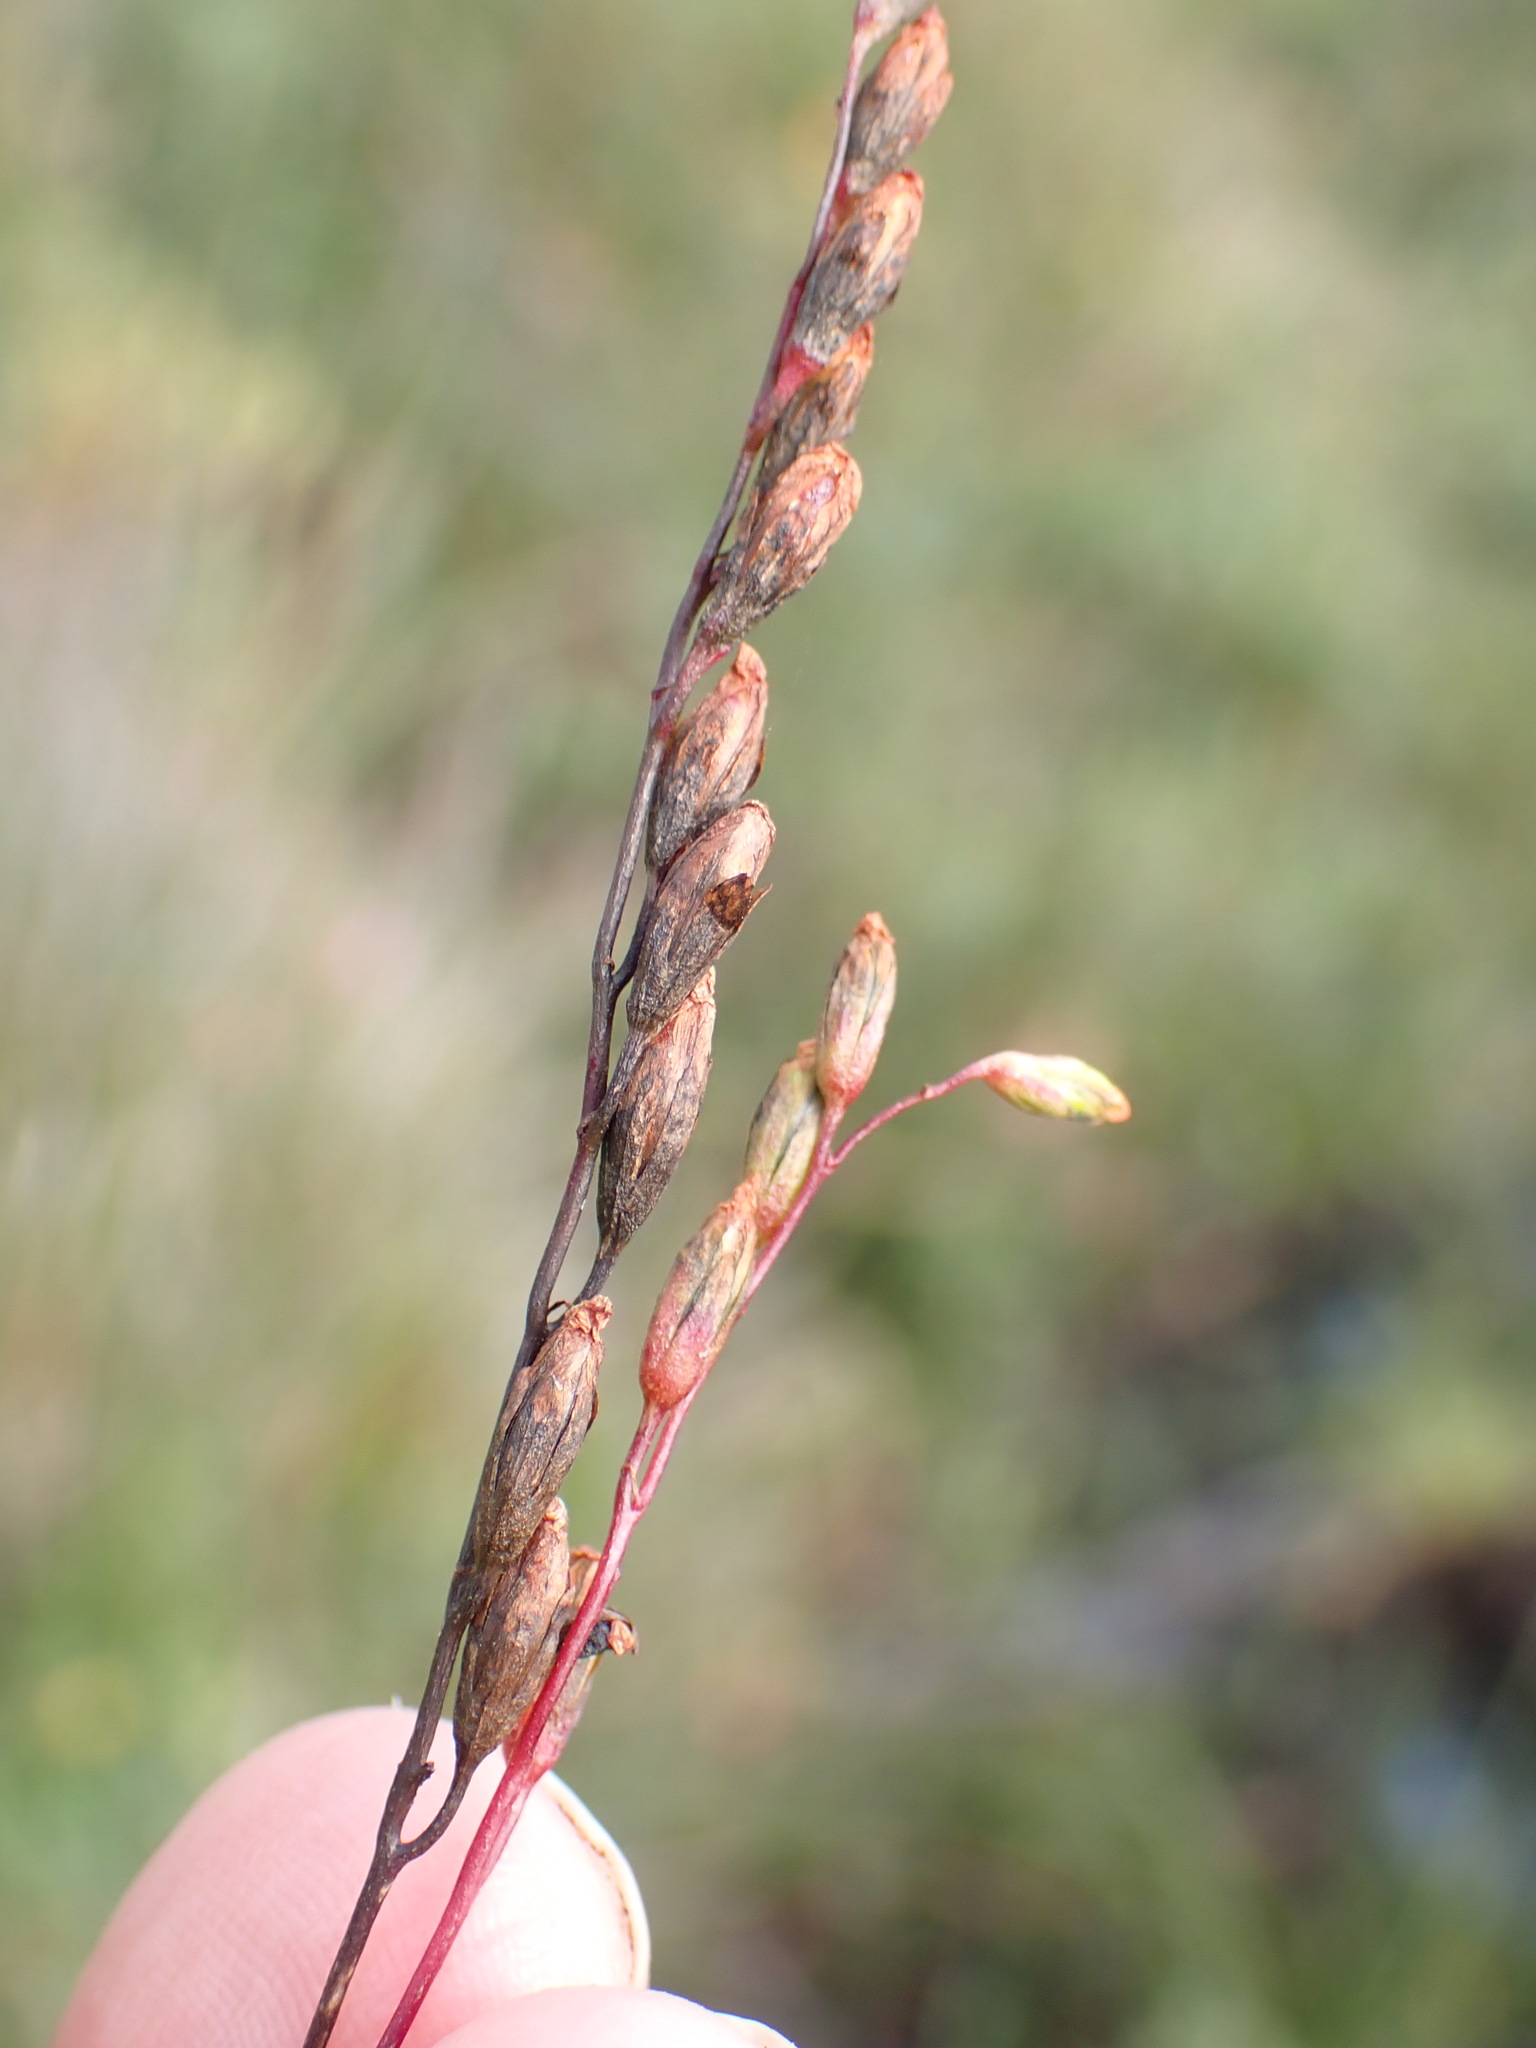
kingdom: Plantae
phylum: Tracheophyta
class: Liliopsida
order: Alismatales
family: Juncaginaceae
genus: Triglochin
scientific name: Triglochin palustris
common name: Marsh arrowgrass
